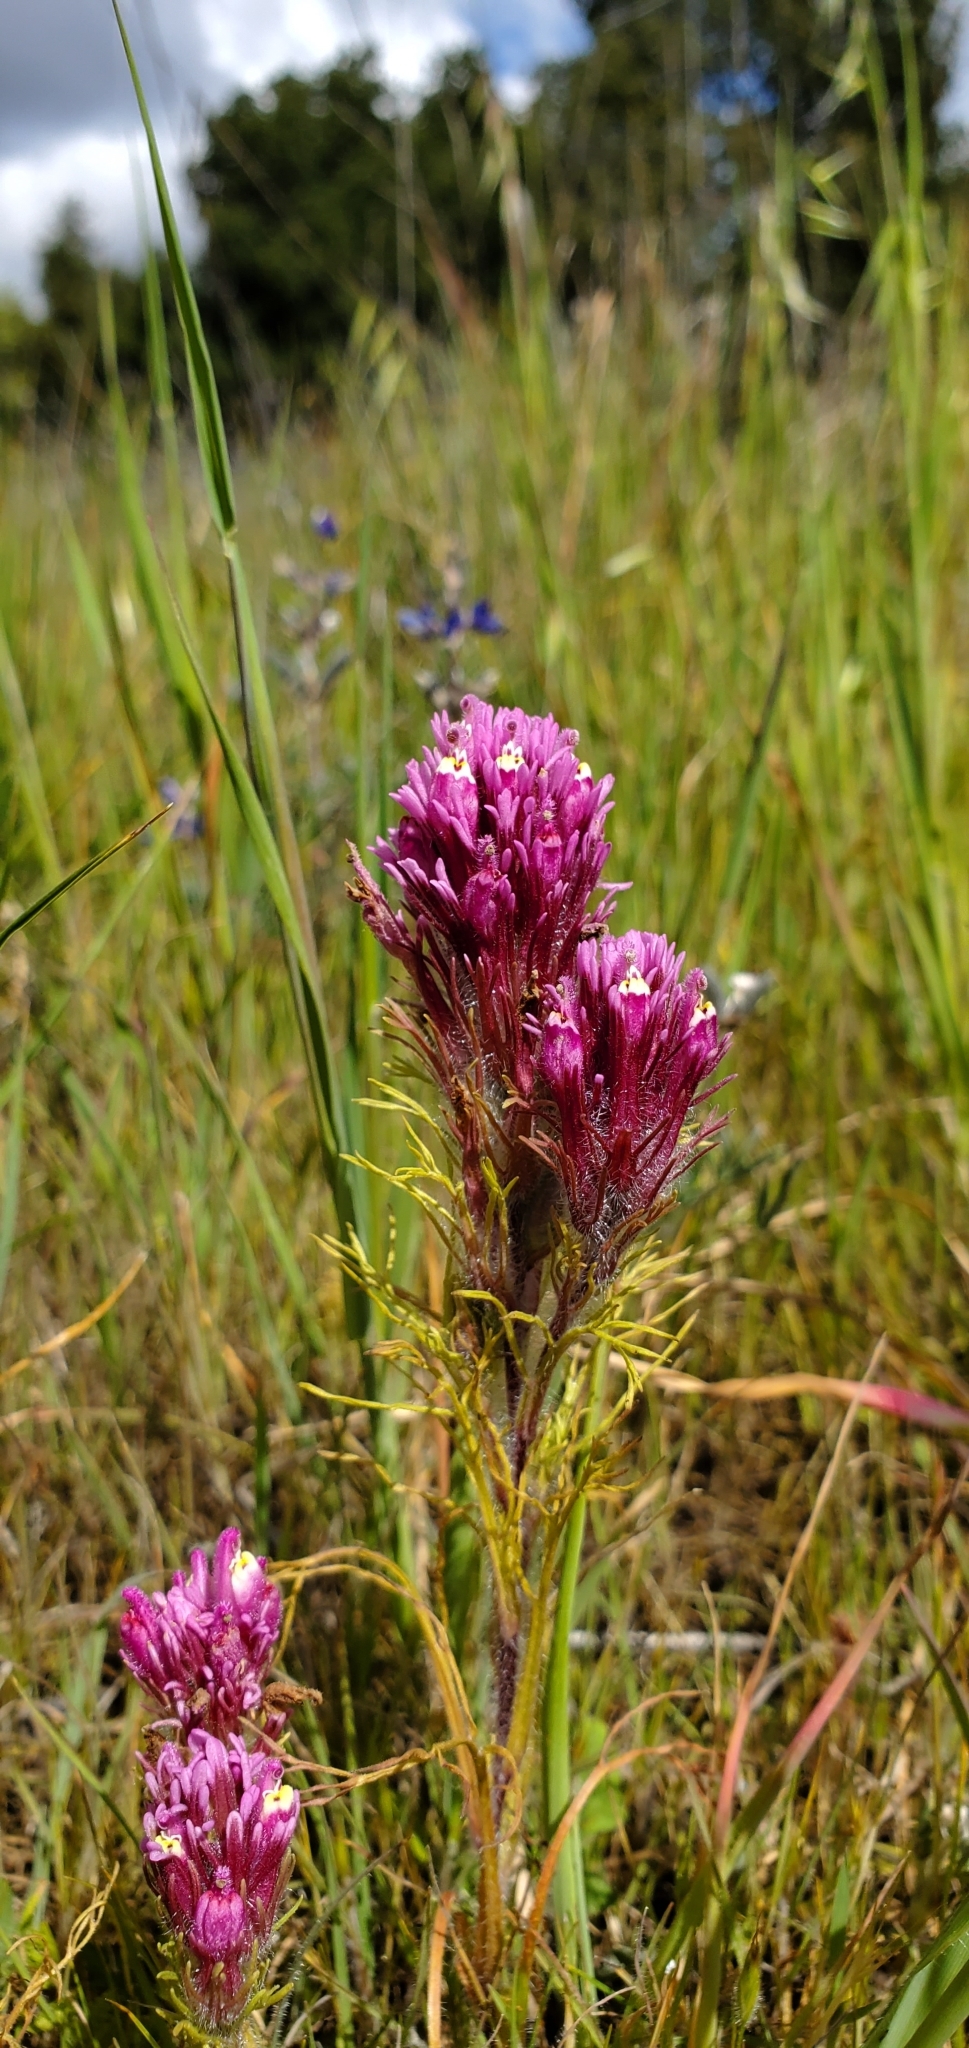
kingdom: Plantae
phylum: Tracheophyta
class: Magnoliopsida
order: Lamiales
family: Orobanchaceae
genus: Castilleja
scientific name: Castilleja exserta
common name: Purple owl-clover
